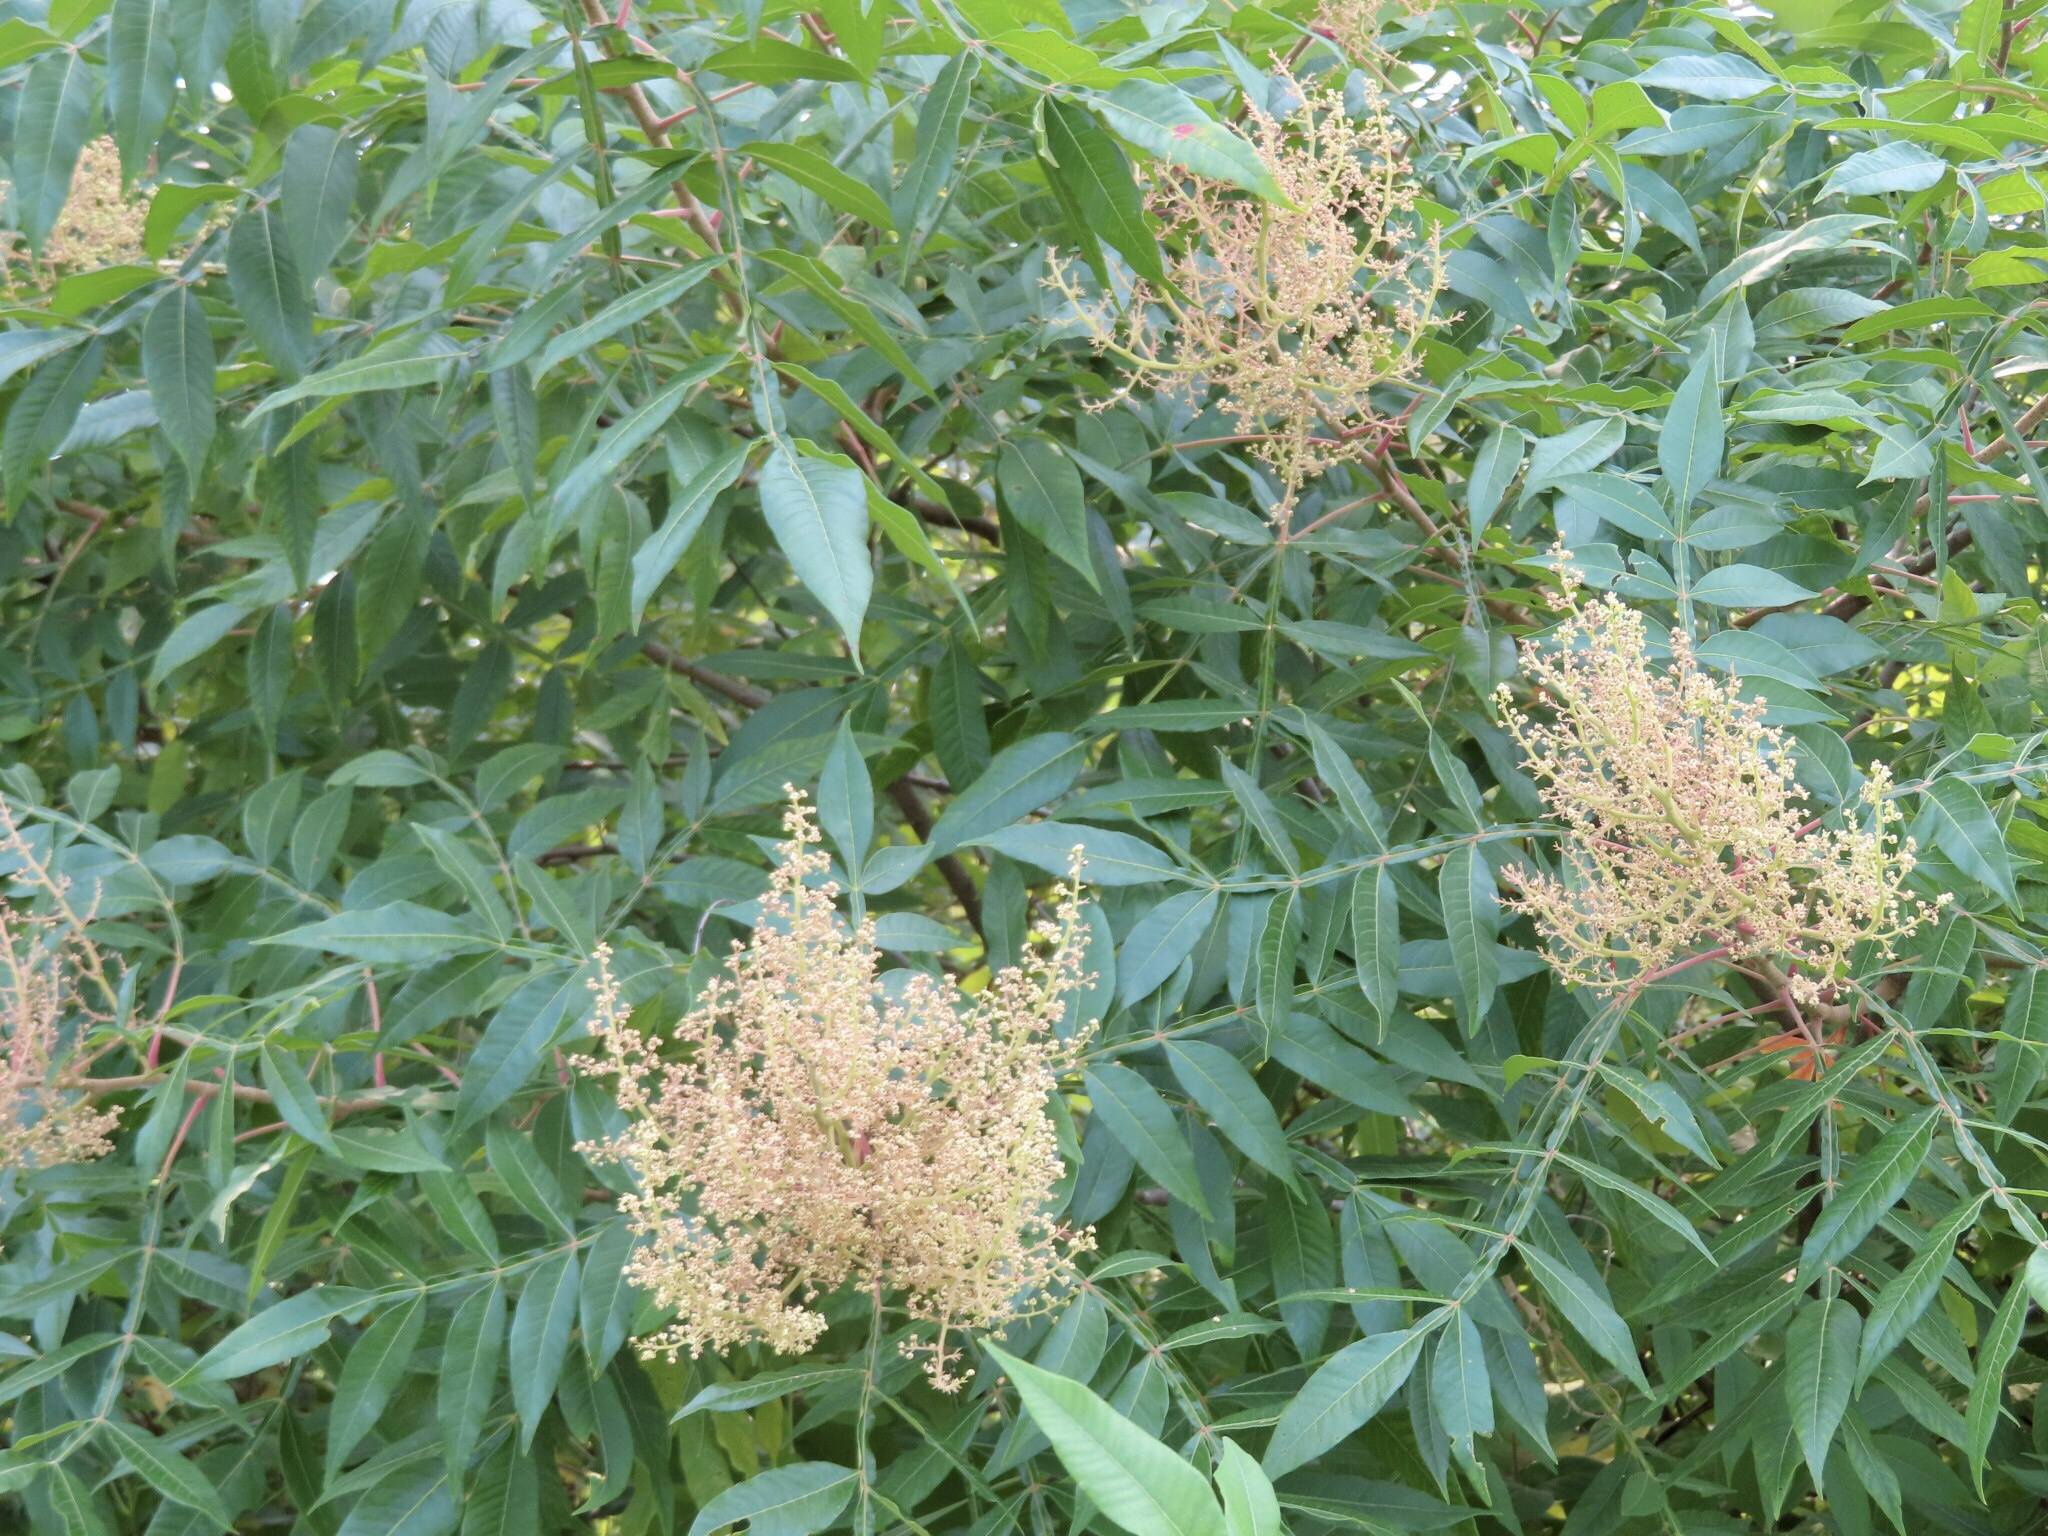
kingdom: Plantae
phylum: Tracheophyta
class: Magnoliopsida
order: Sapindales
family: Anacardiaceae
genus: Rhus
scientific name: Rhus copallina
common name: Shining sumac
